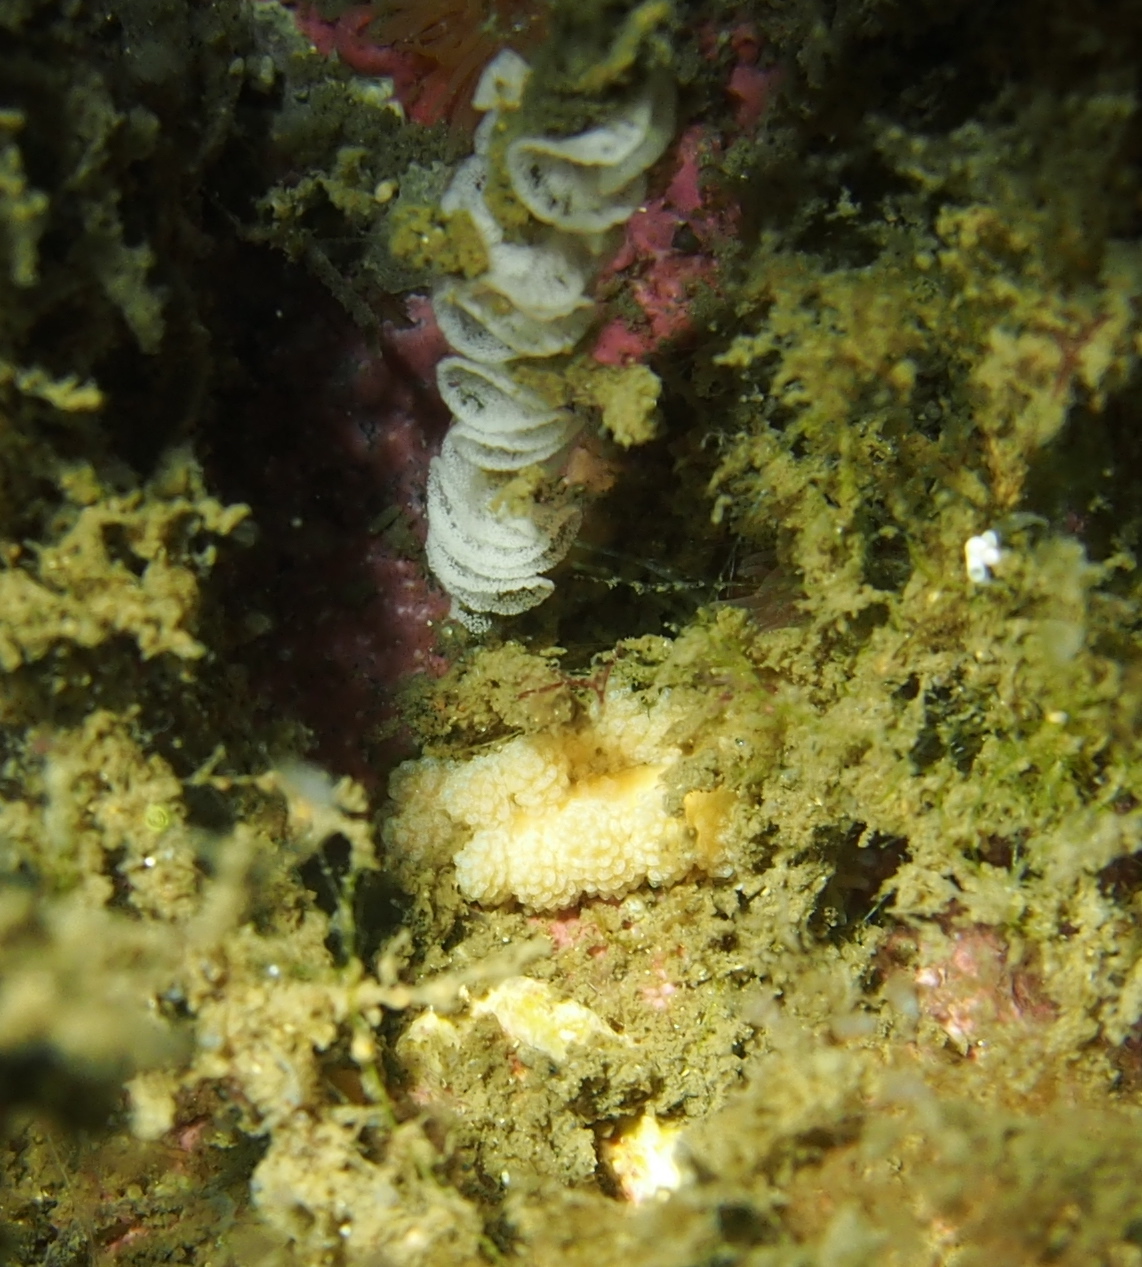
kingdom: Animalia
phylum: Mollusca
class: Gastropoda
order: Nudibranchia
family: Dotidae
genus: Doto
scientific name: Doto fragilis
